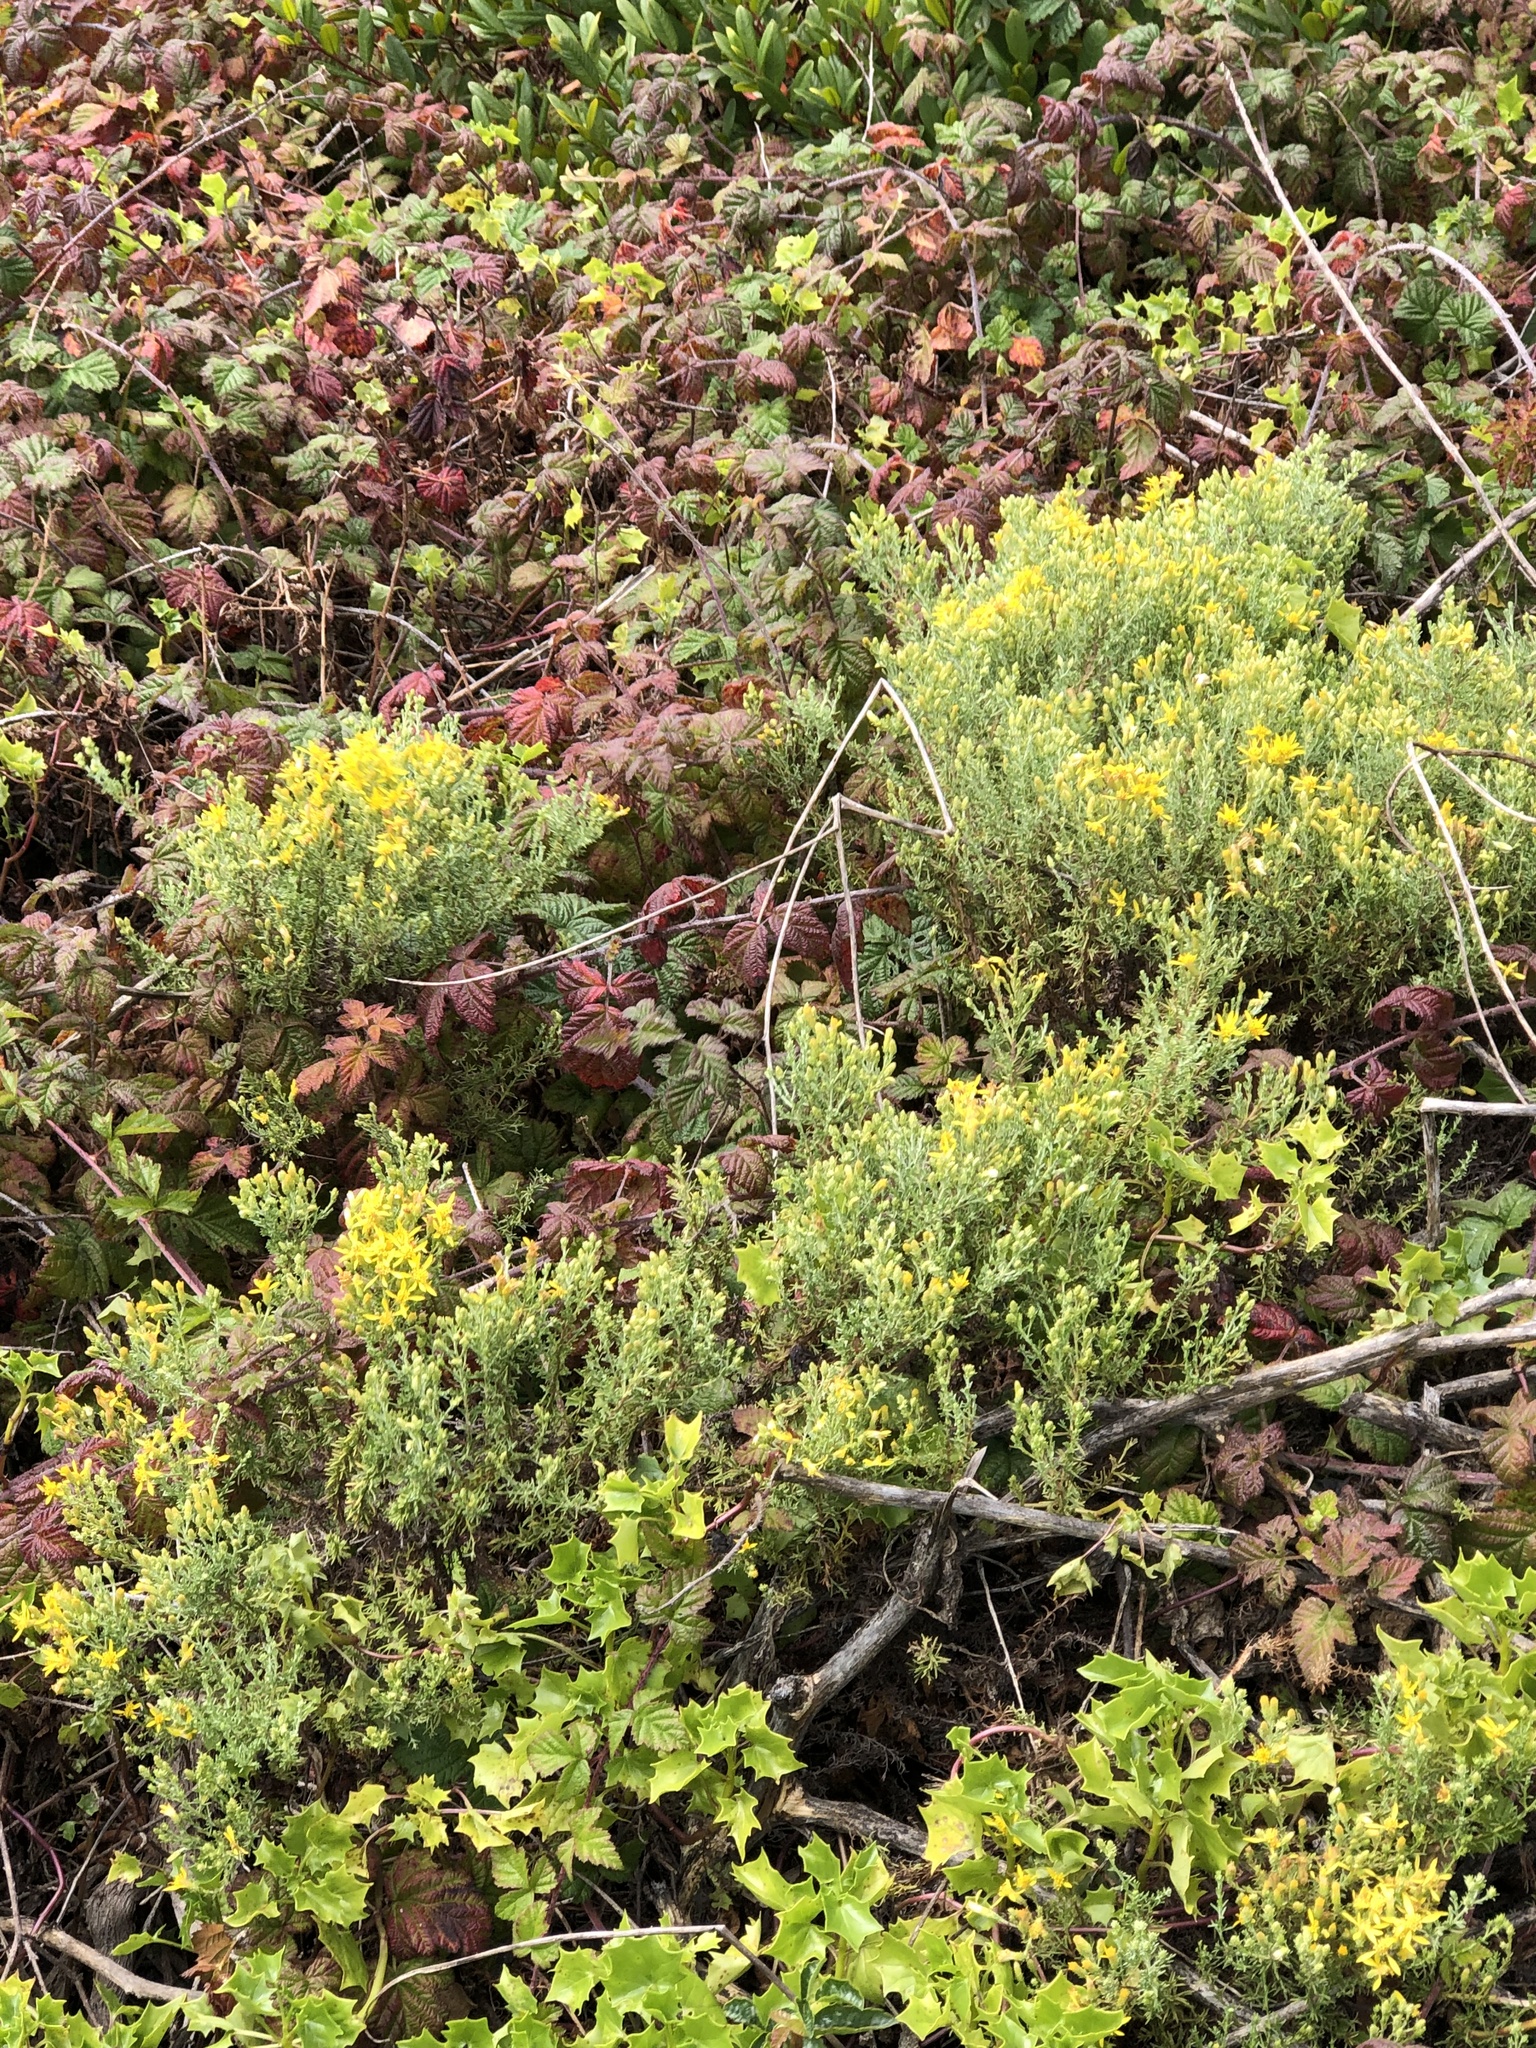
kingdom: Plantae
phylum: Tracheophyta
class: Magnoliopsida
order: Asterales
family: Asteraceae
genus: Ericameria
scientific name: Ericameria ericoides
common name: California goldenbush
